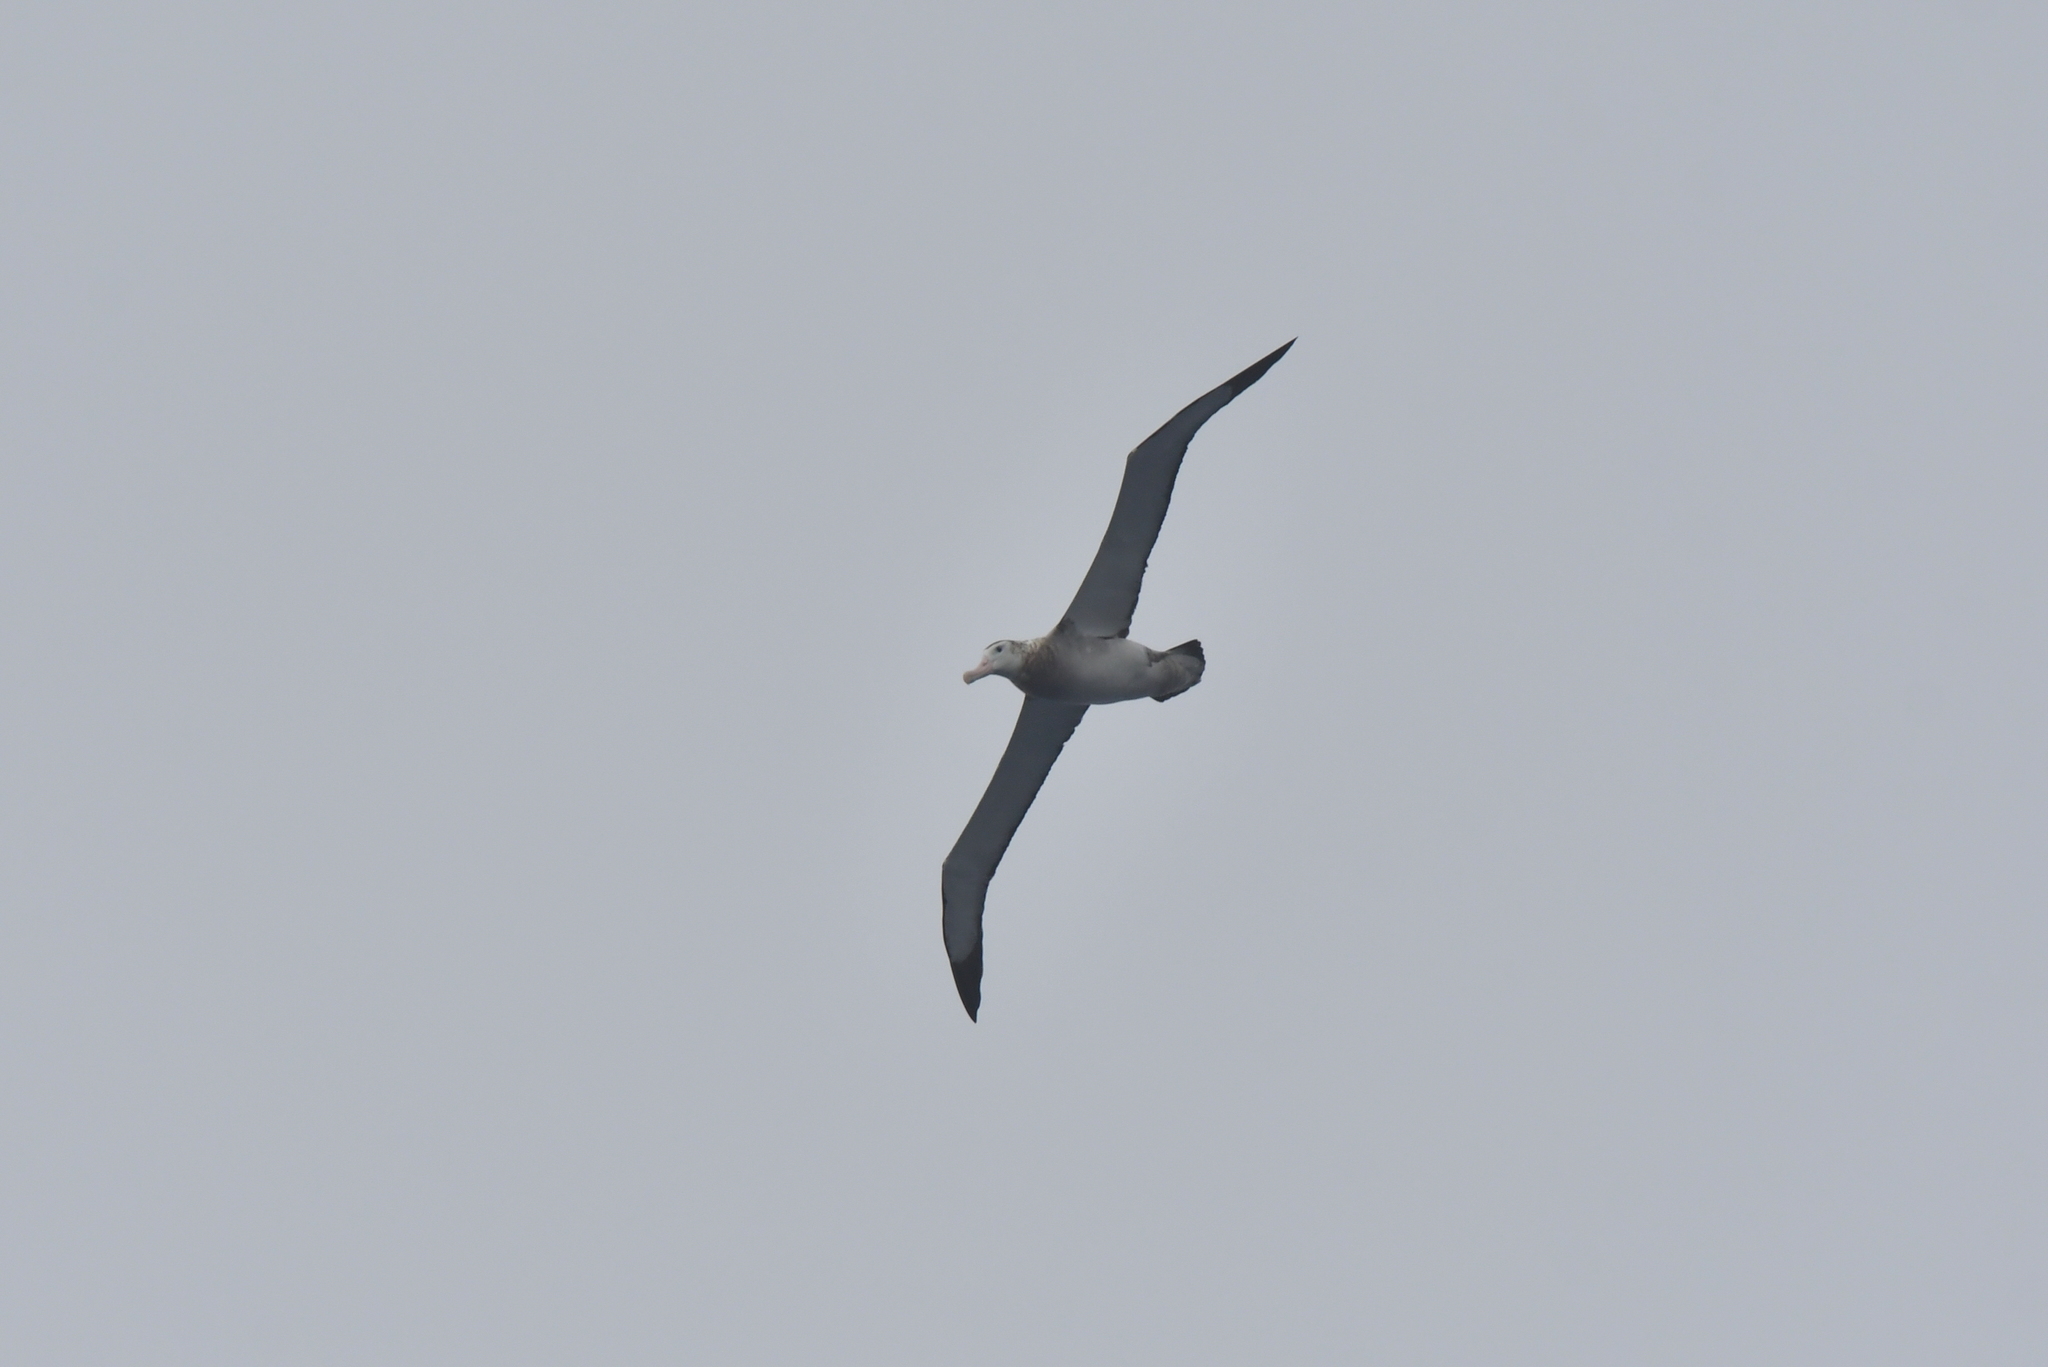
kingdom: Animalia
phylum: Chordata
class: Aves
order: Procellariiformes
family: Diomedeidae
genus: Diomedea
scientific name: Diomedea antipodensis
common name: Antipodean albatross
